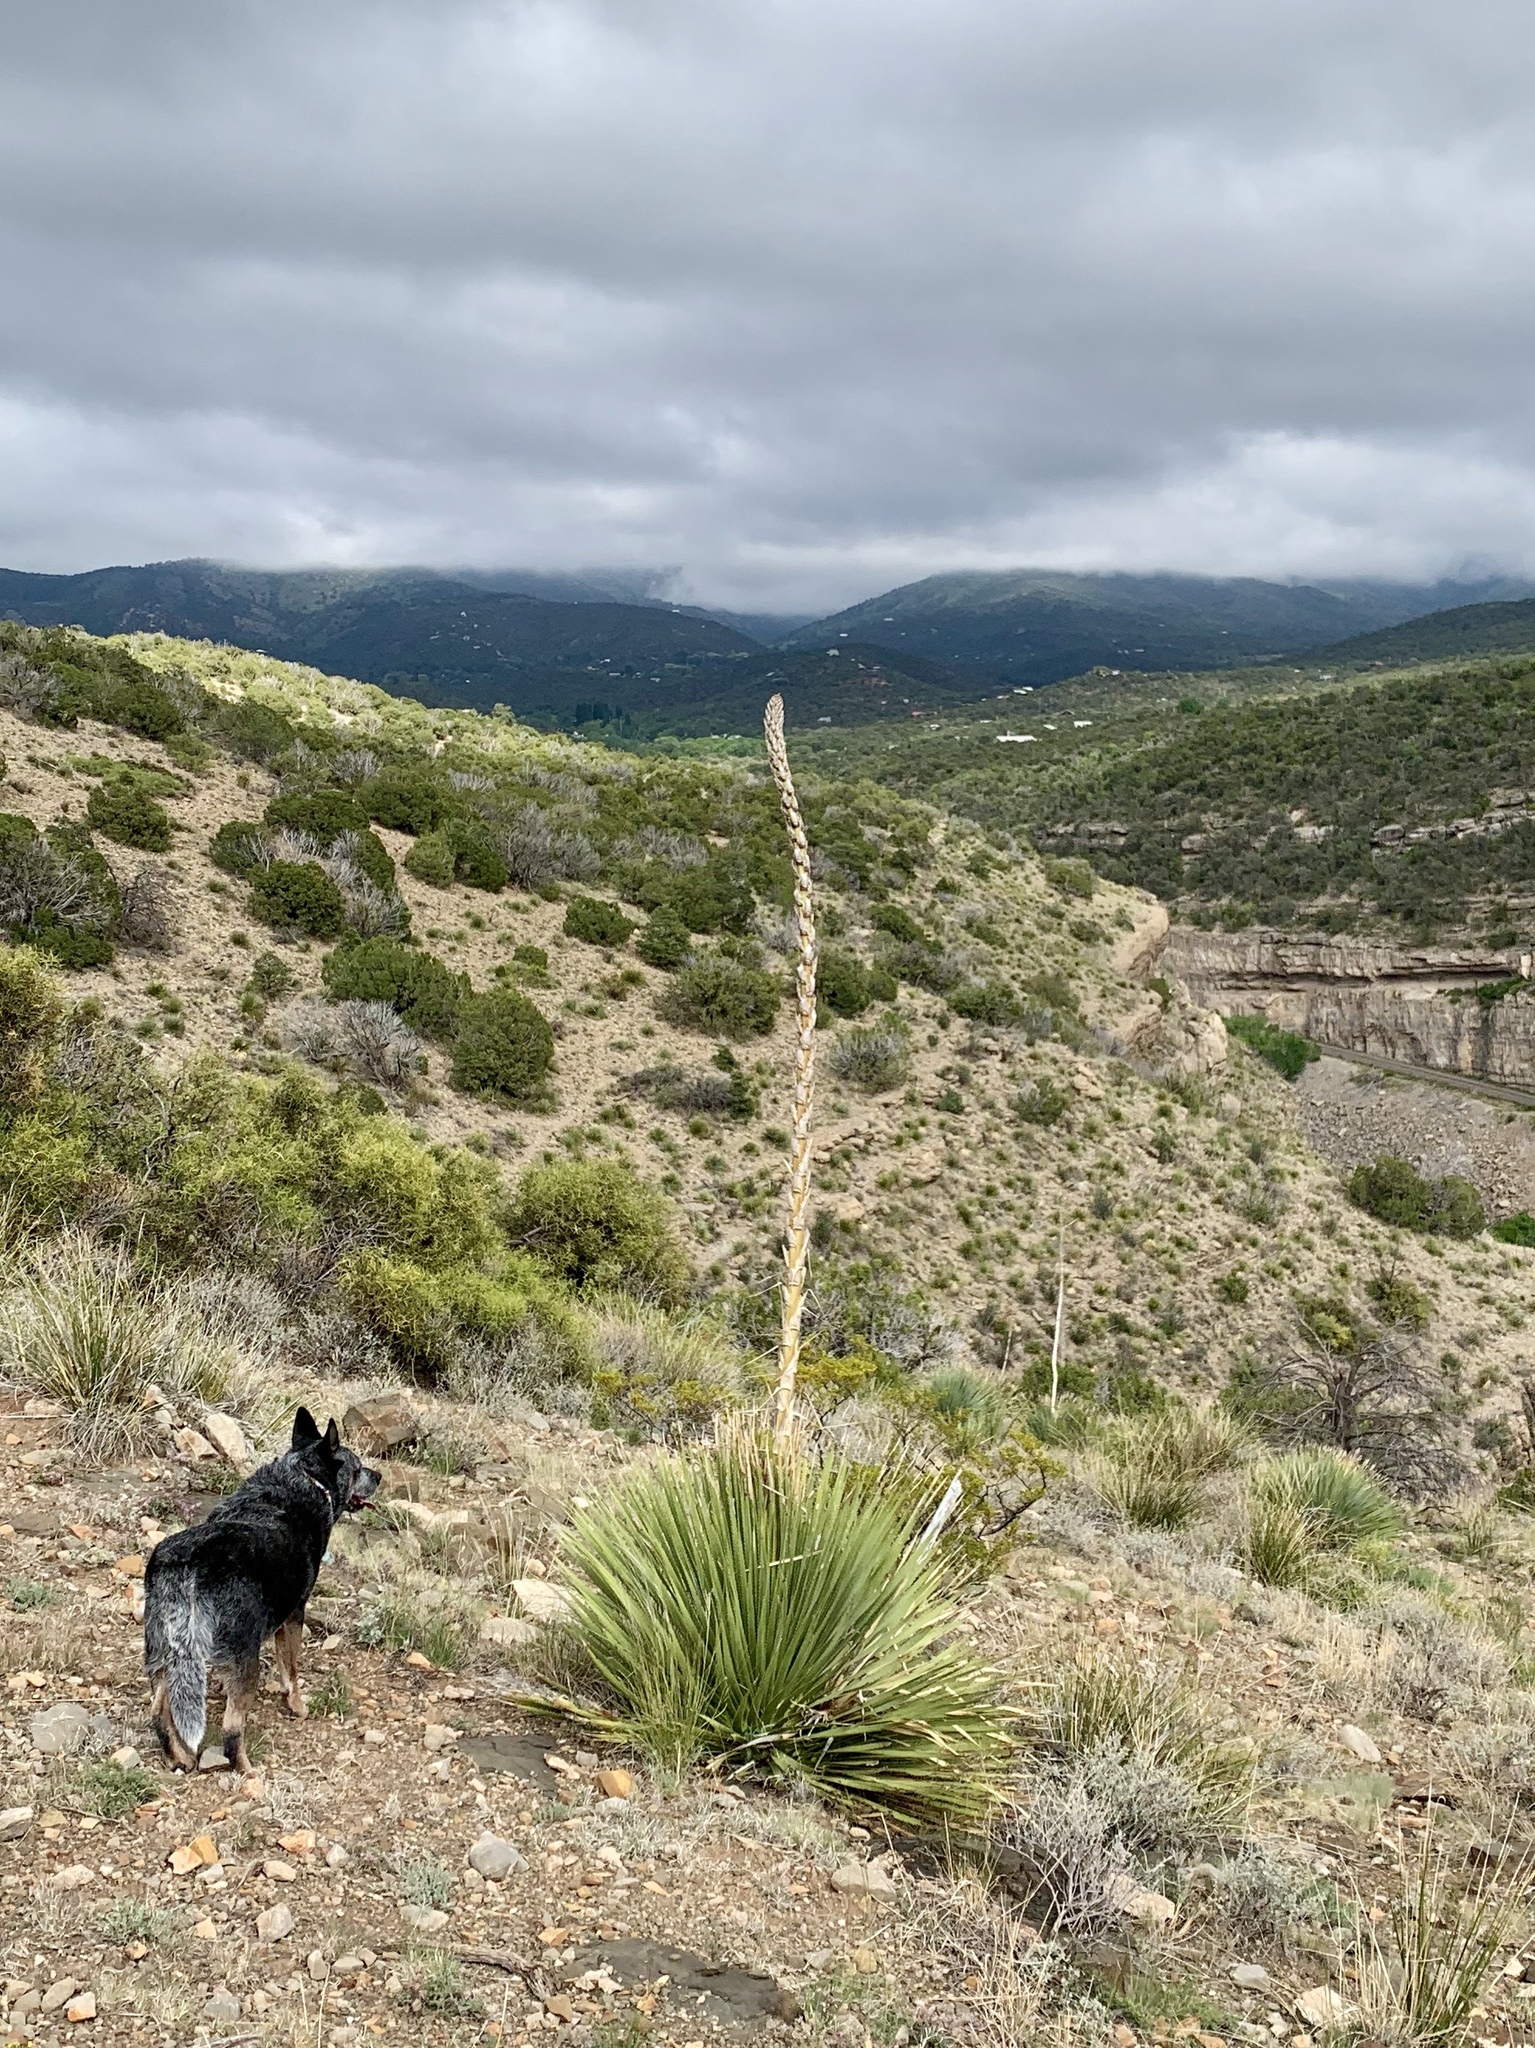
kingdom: Plantae
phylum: Tracheophyta
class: Liliopsida
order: Asparagales
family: Asparagaceae
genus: Dasylirion
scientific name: Dasylirion wheeleri
